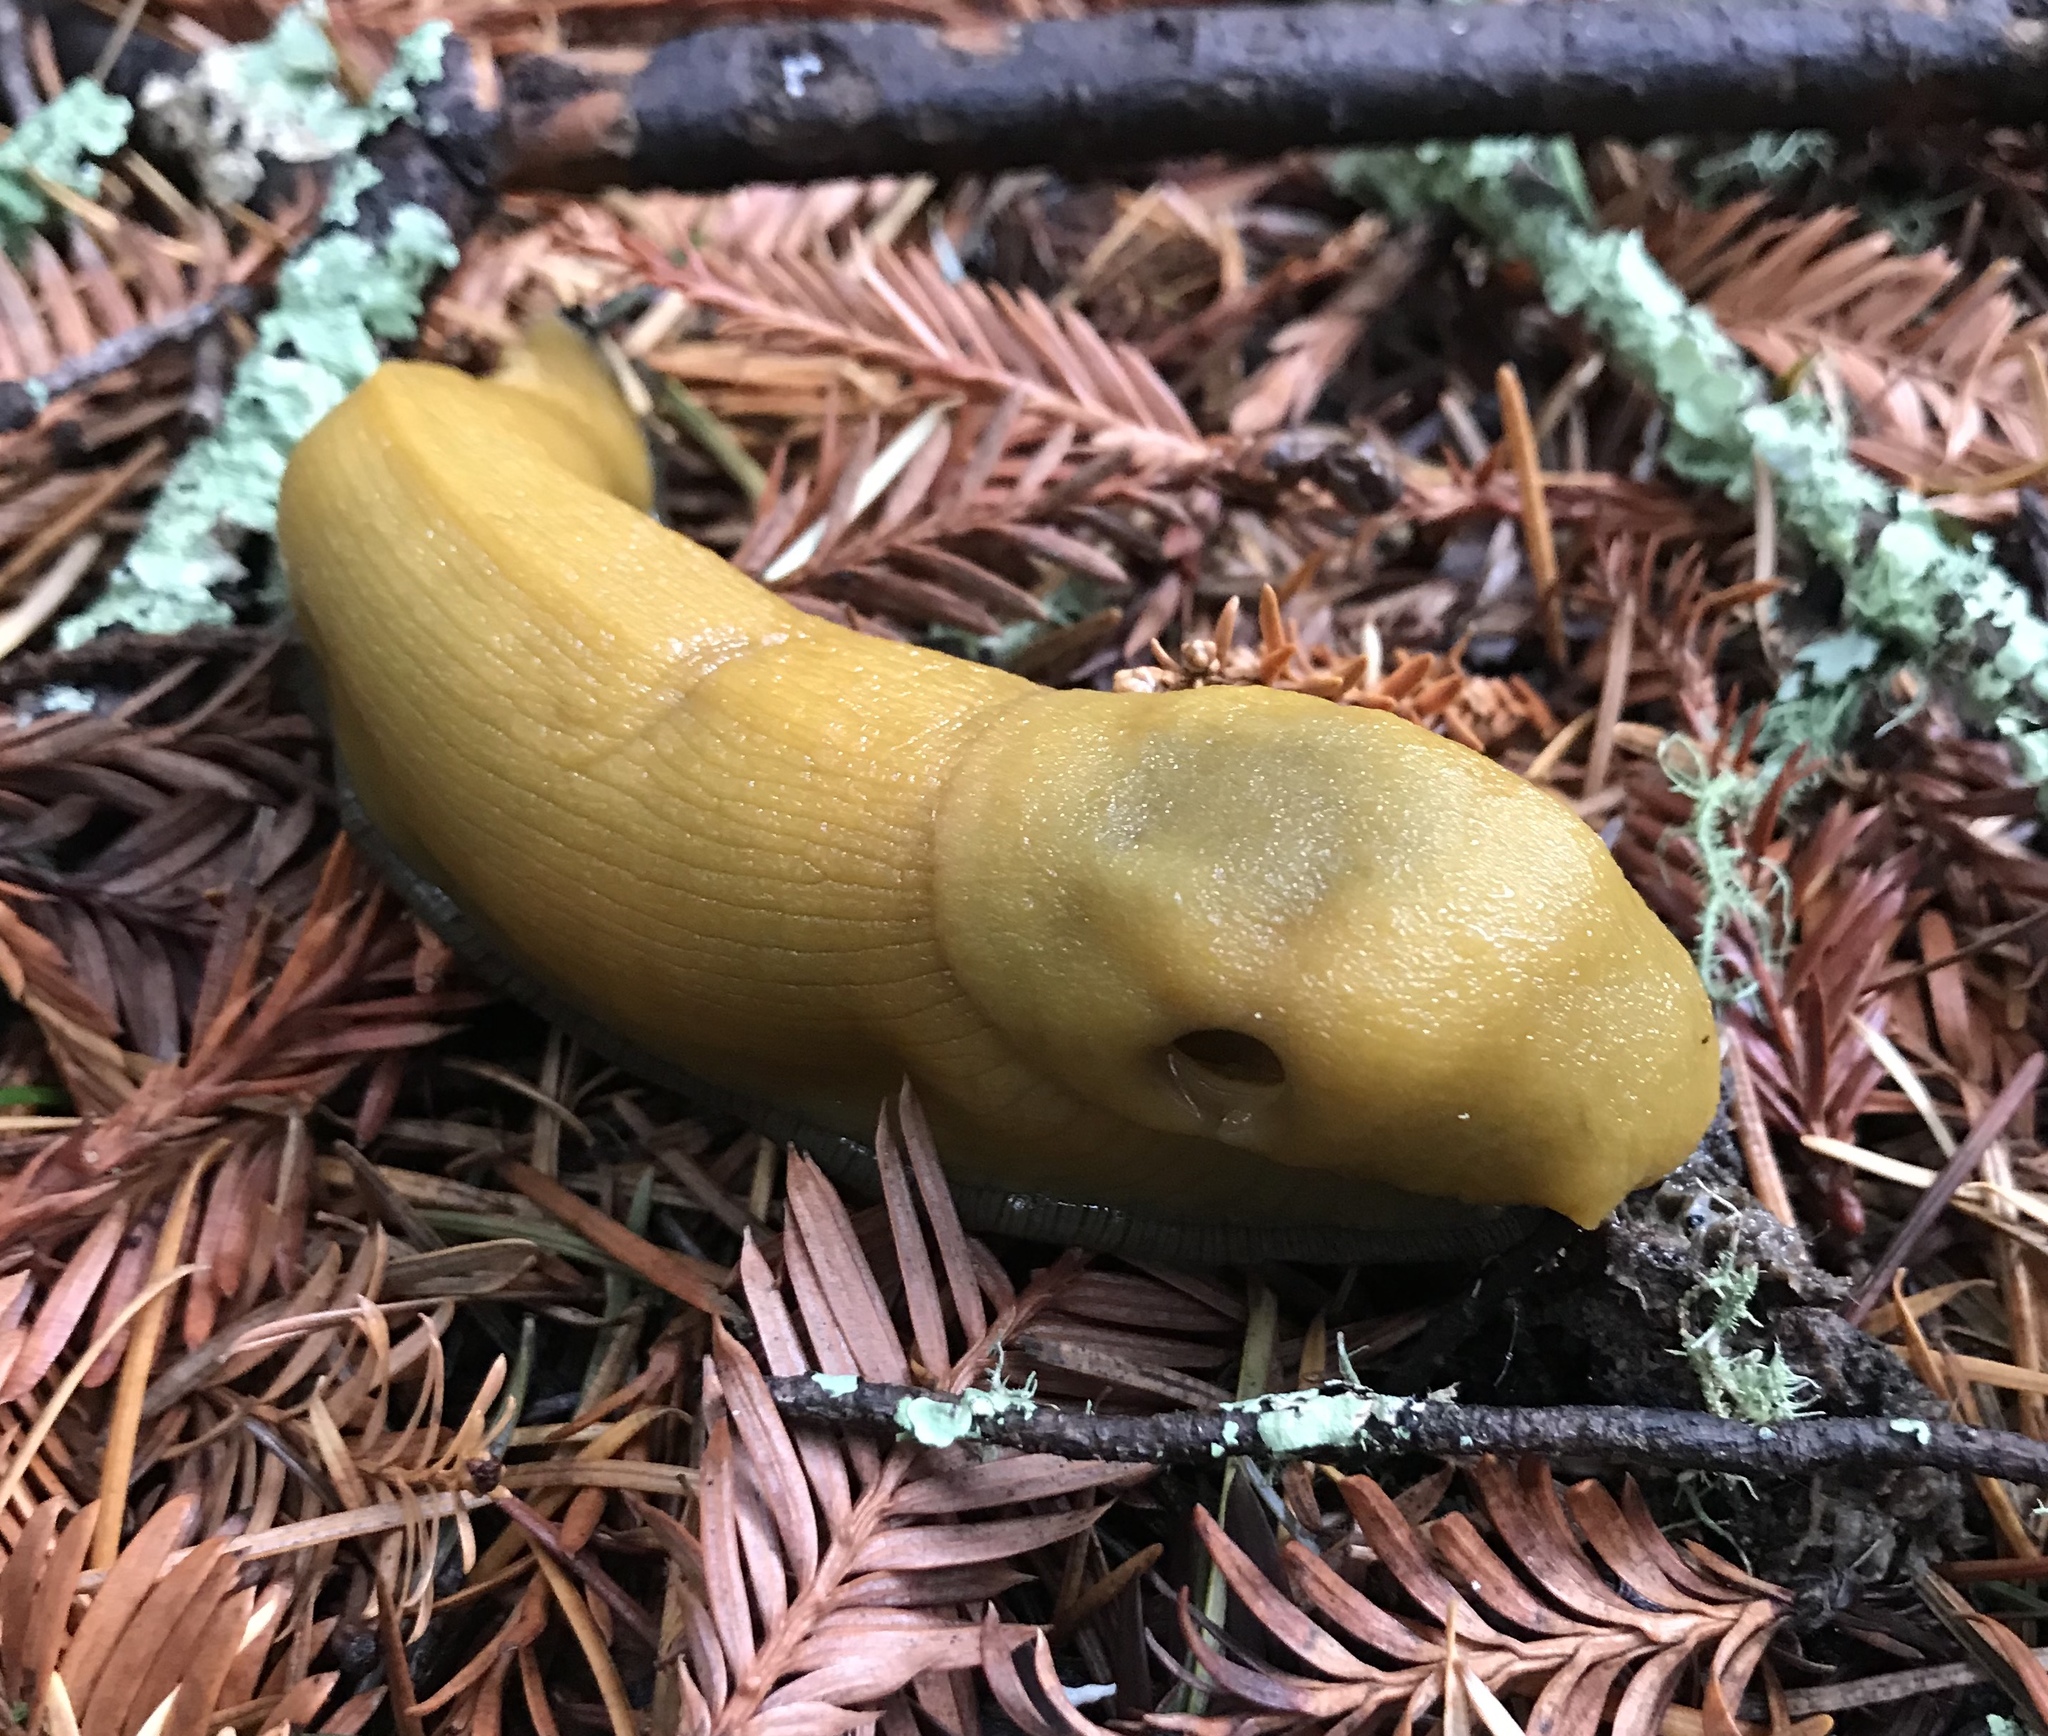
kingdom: Animalia
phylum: Mollusca
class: Gastropoda
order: Stylommatophora
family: Ariolimacidae
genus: Ariolimax
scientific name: Ariolimax dolichophallus
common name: Slender banana slug
